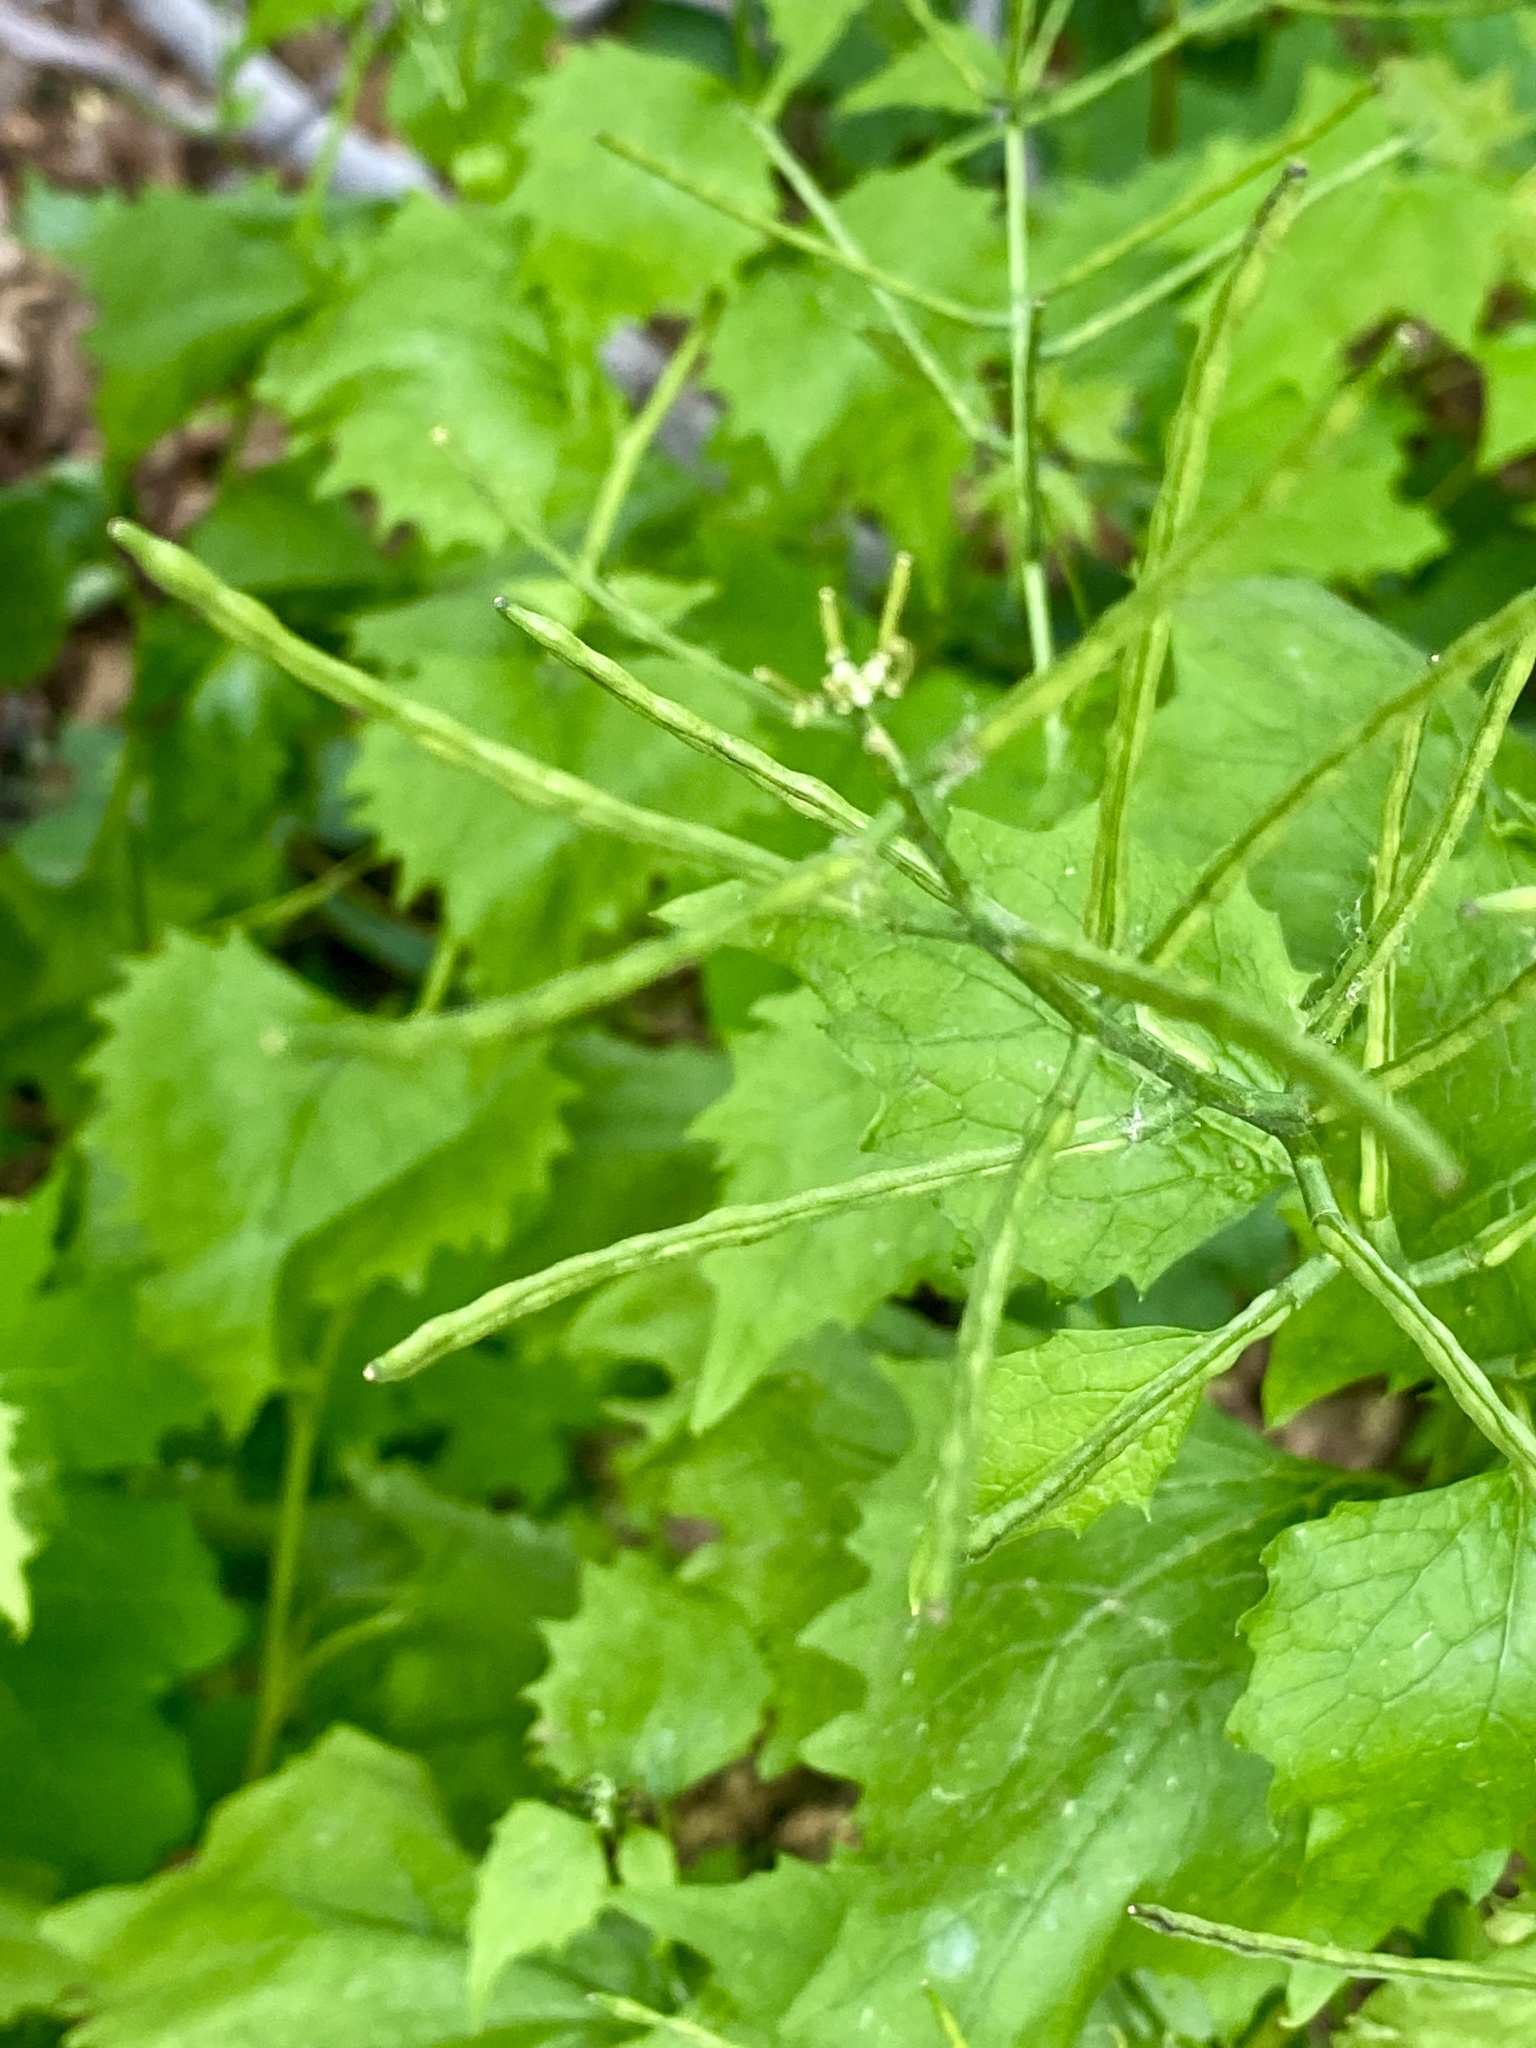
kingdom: Plantae
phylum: Tracheophyta
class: Magnoliopsida
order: Brassicales
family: Brassicaceae
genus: Alliaria
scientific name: Alliaria petiolata
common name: Garlic mustard
